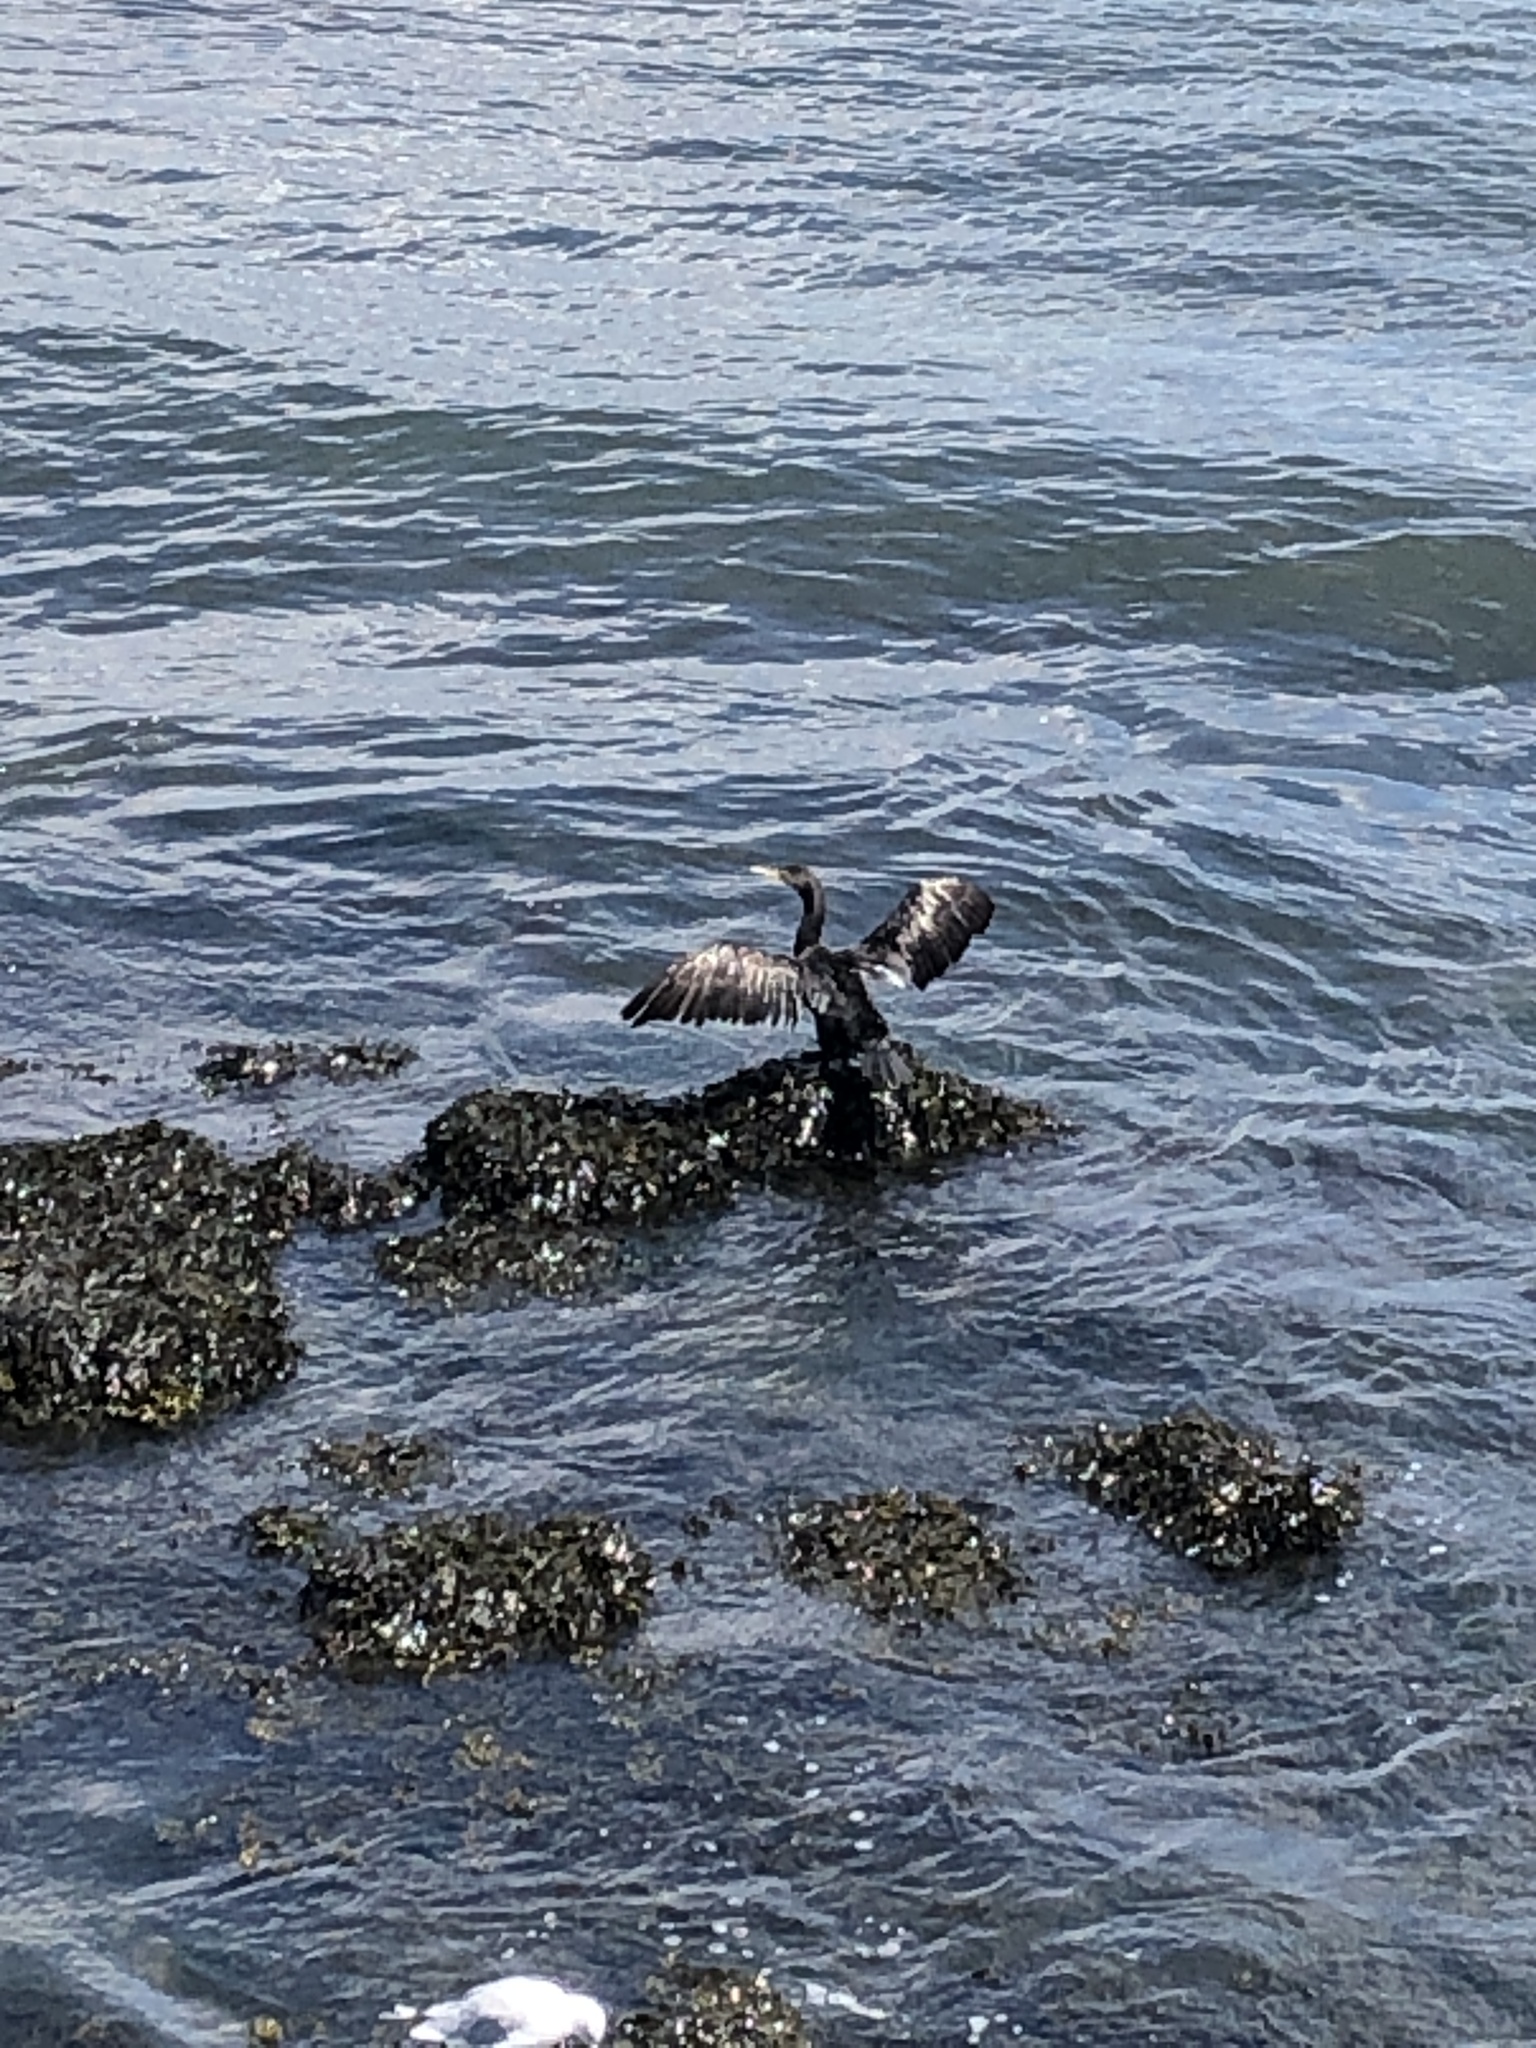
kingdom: Animalia
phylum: Chordata
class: Aves
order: Suliformes
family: Phalacrocoracidae
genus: Phalacrocorax
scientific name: Phalacrocorax auritus
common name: Double-crested cormorant
